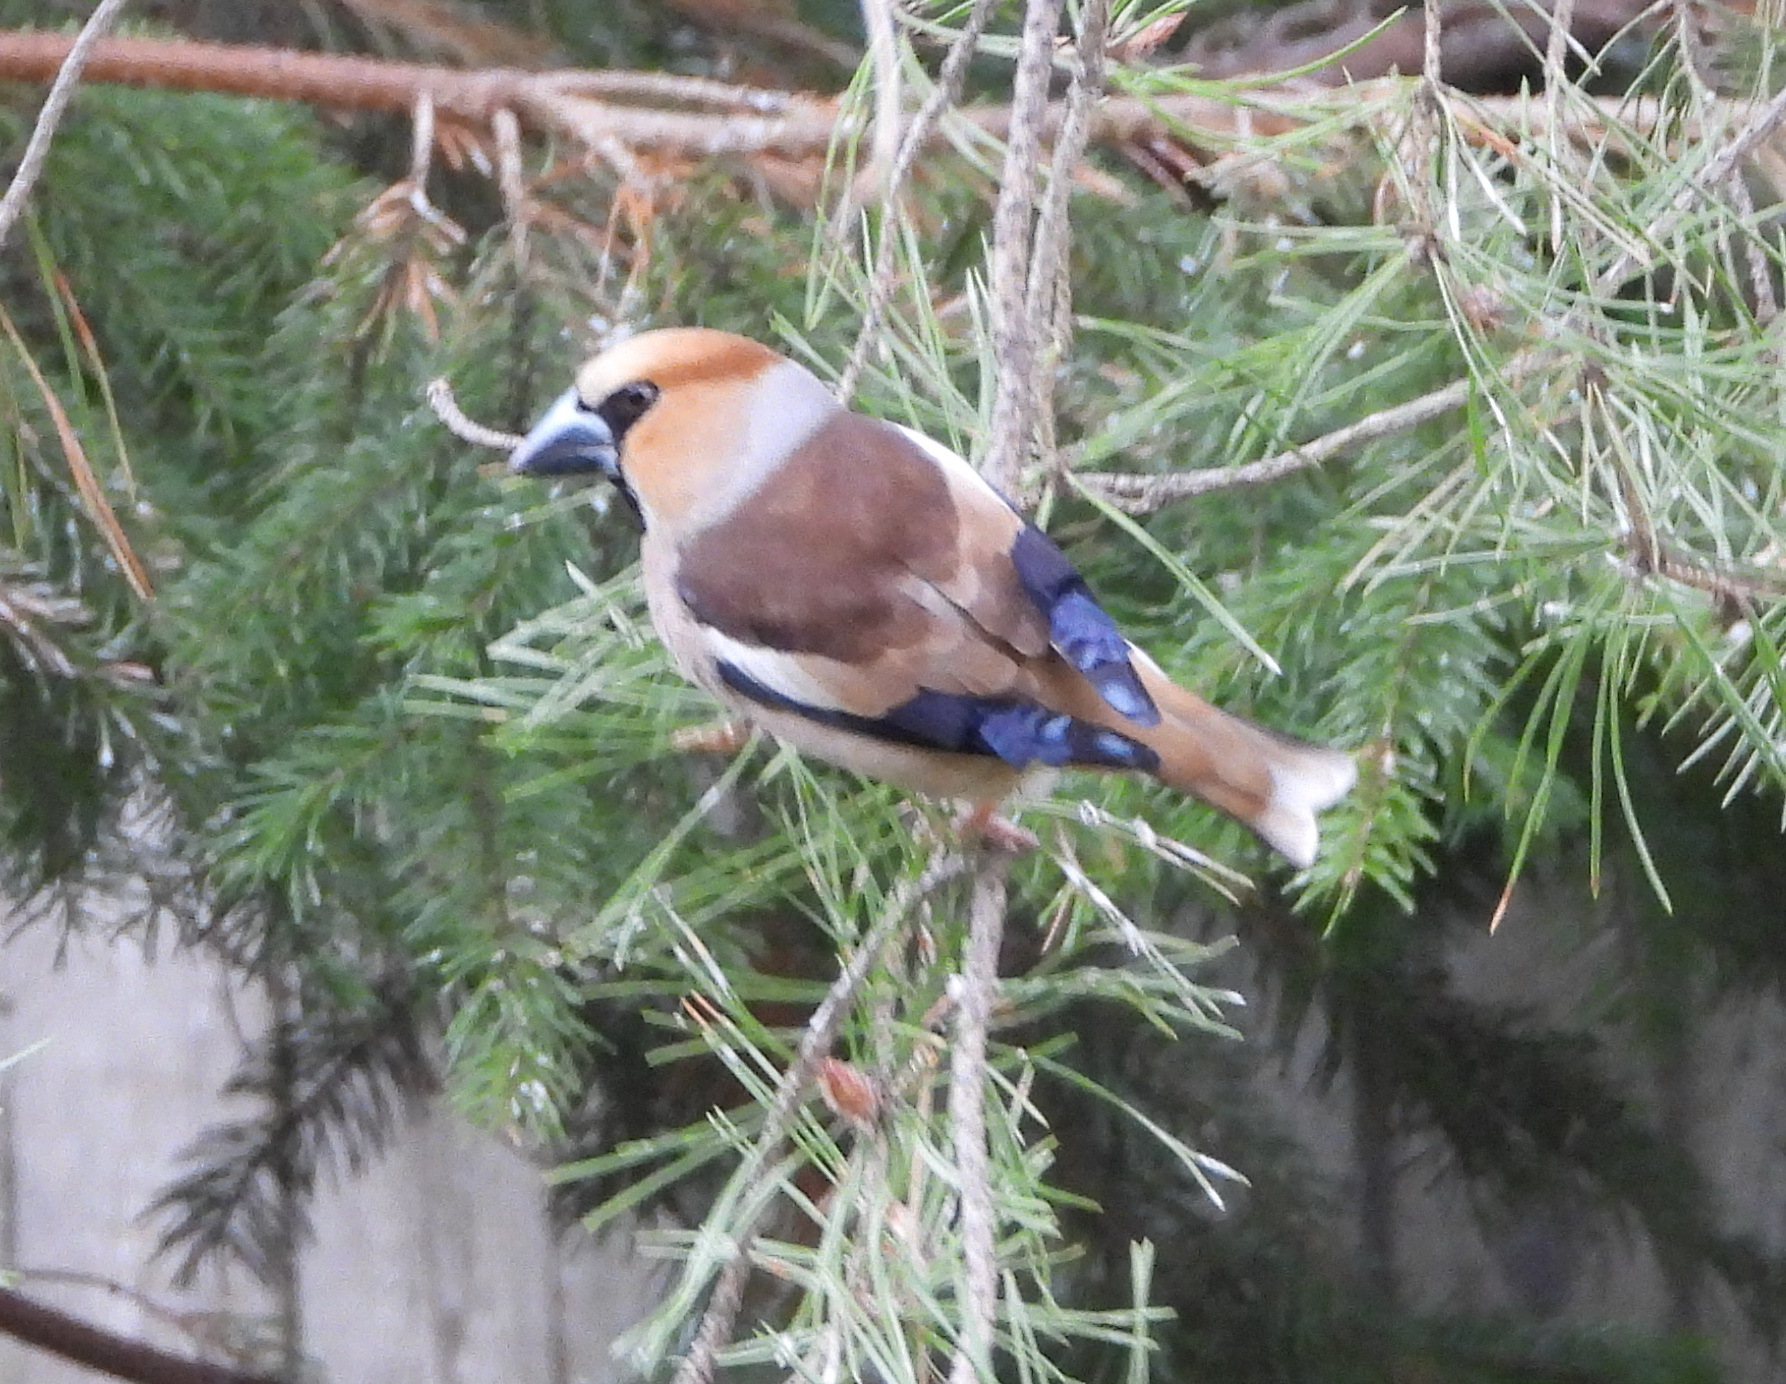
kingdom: Animalia
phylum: Chordata
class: Aves
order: Passeriformes
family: Fringillidae
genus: Coccothraustes
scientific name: Coccothraustes coccothraustes
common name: Hawfinch
